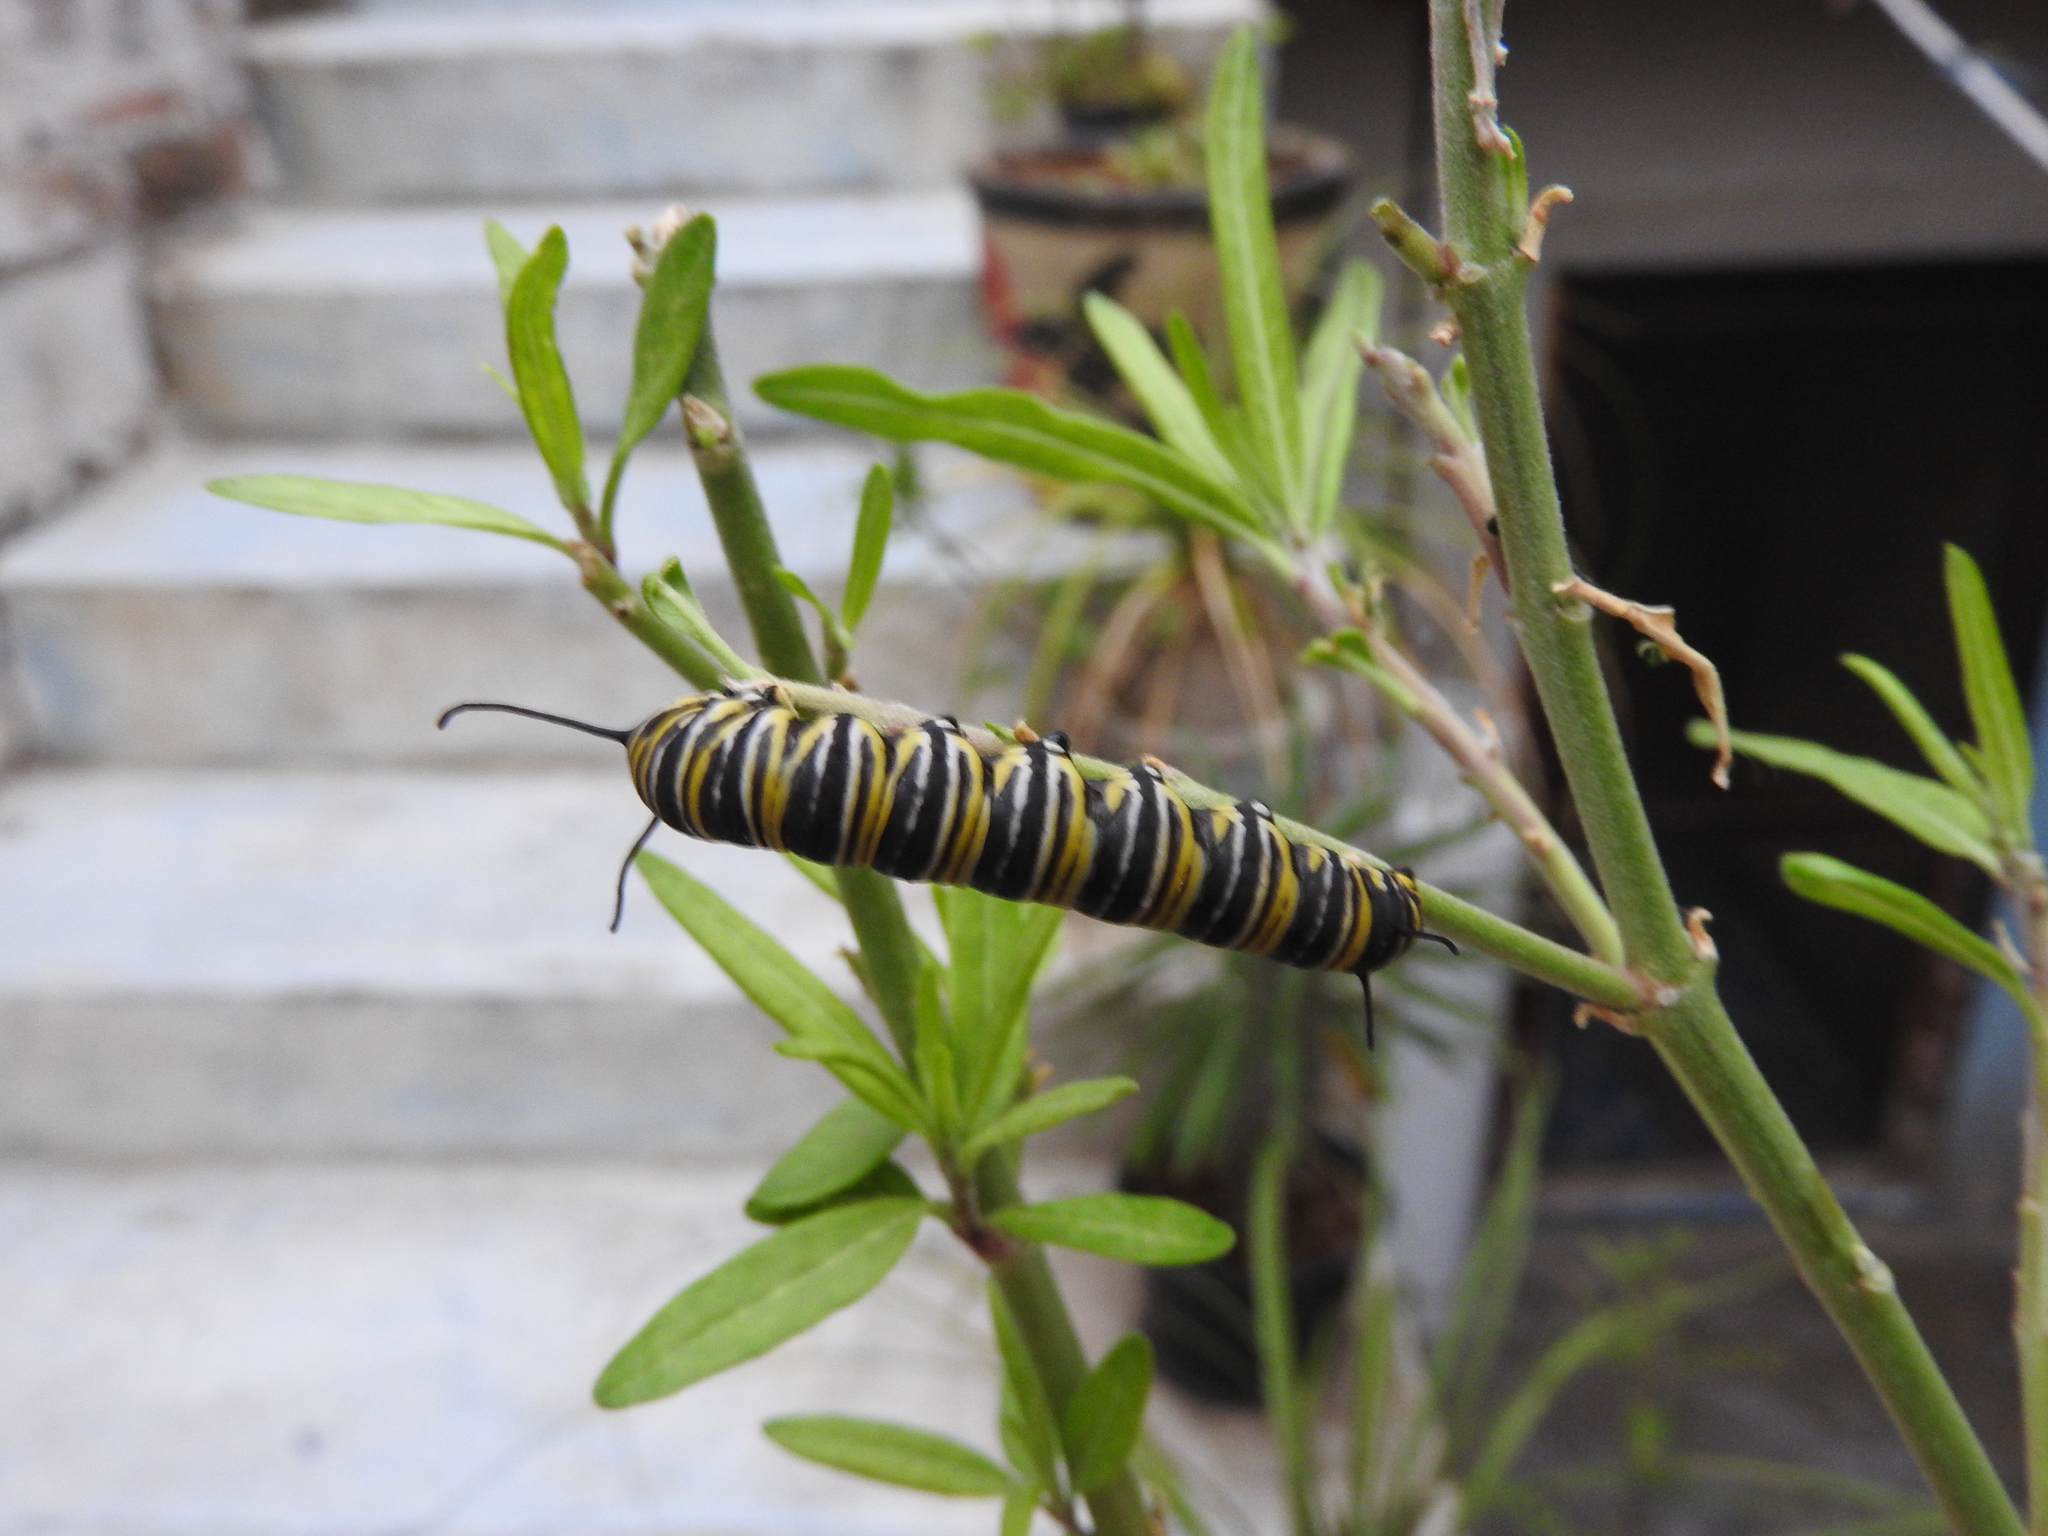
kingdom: Animalia
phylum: Arthropoda
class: Insecta
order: Lepidoptera
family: Nymphalidae
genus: Danaus
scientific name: Danaus plexippus
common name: Monarch
